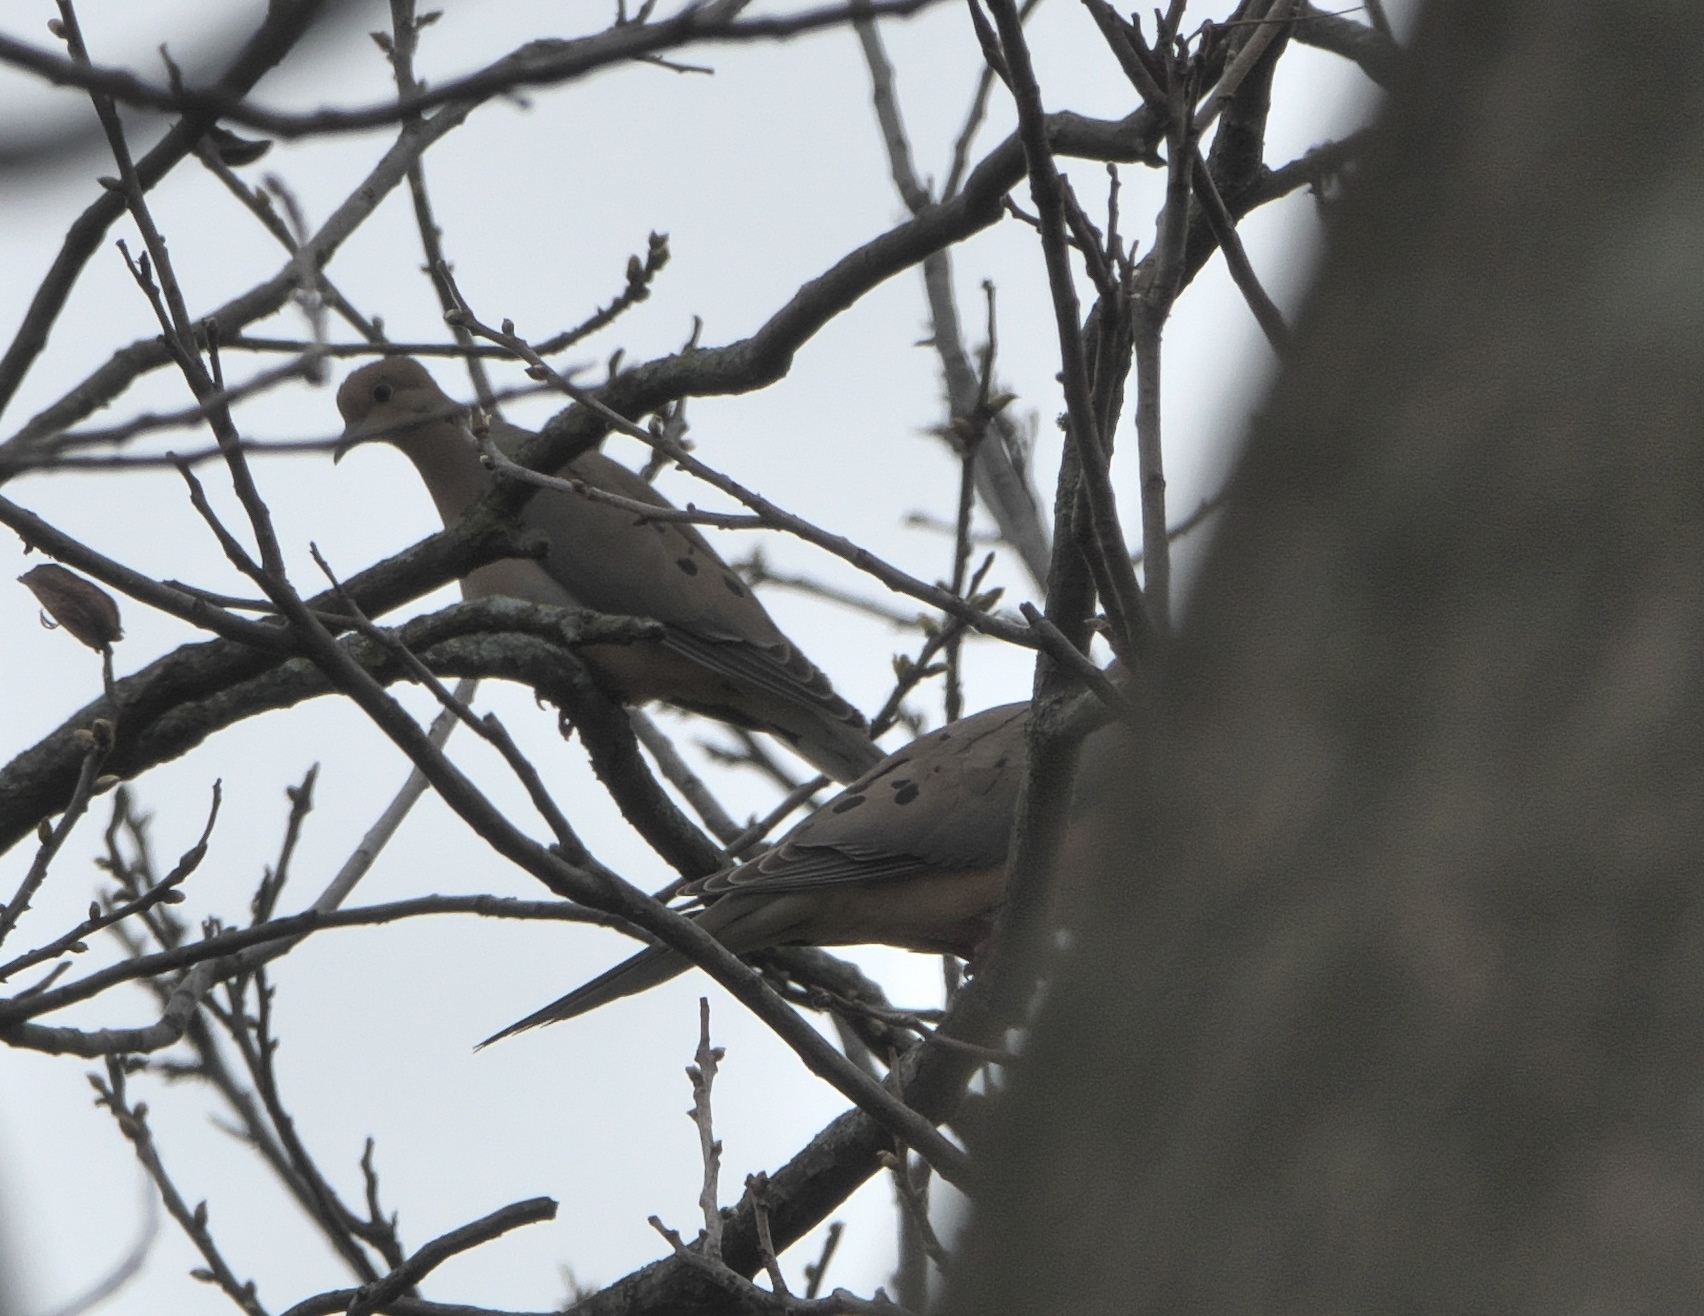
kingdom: Animalia
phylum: Chordata
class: Aves
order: Columbiformes
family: Columbidae
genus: Zenaida
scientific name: Zenaida macroura
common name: Mourning dove
